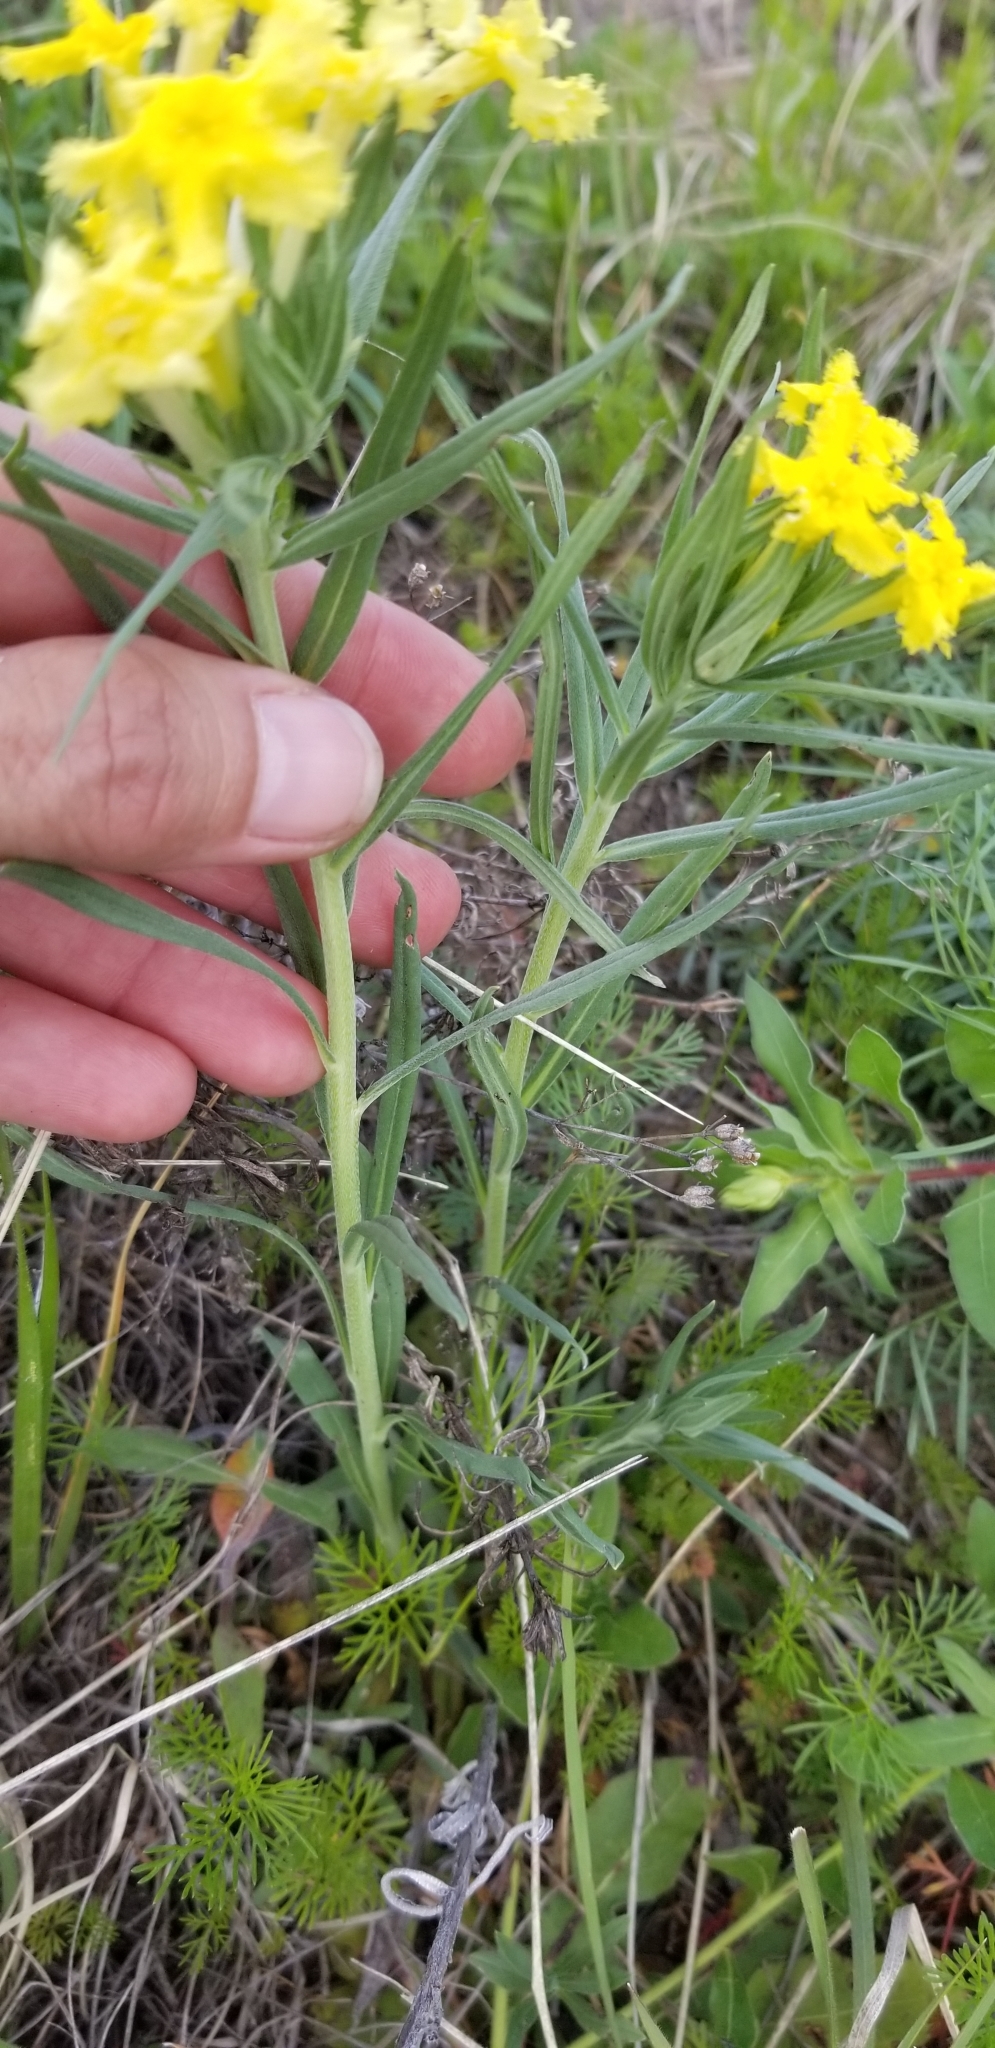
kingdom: Plantae
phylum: Tracheophyta
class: Magnoliopsida
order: Boraginales
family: Boraginaceae
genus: Lithospermum
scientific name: Lithospermum incisum
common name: Fringed gromwell
